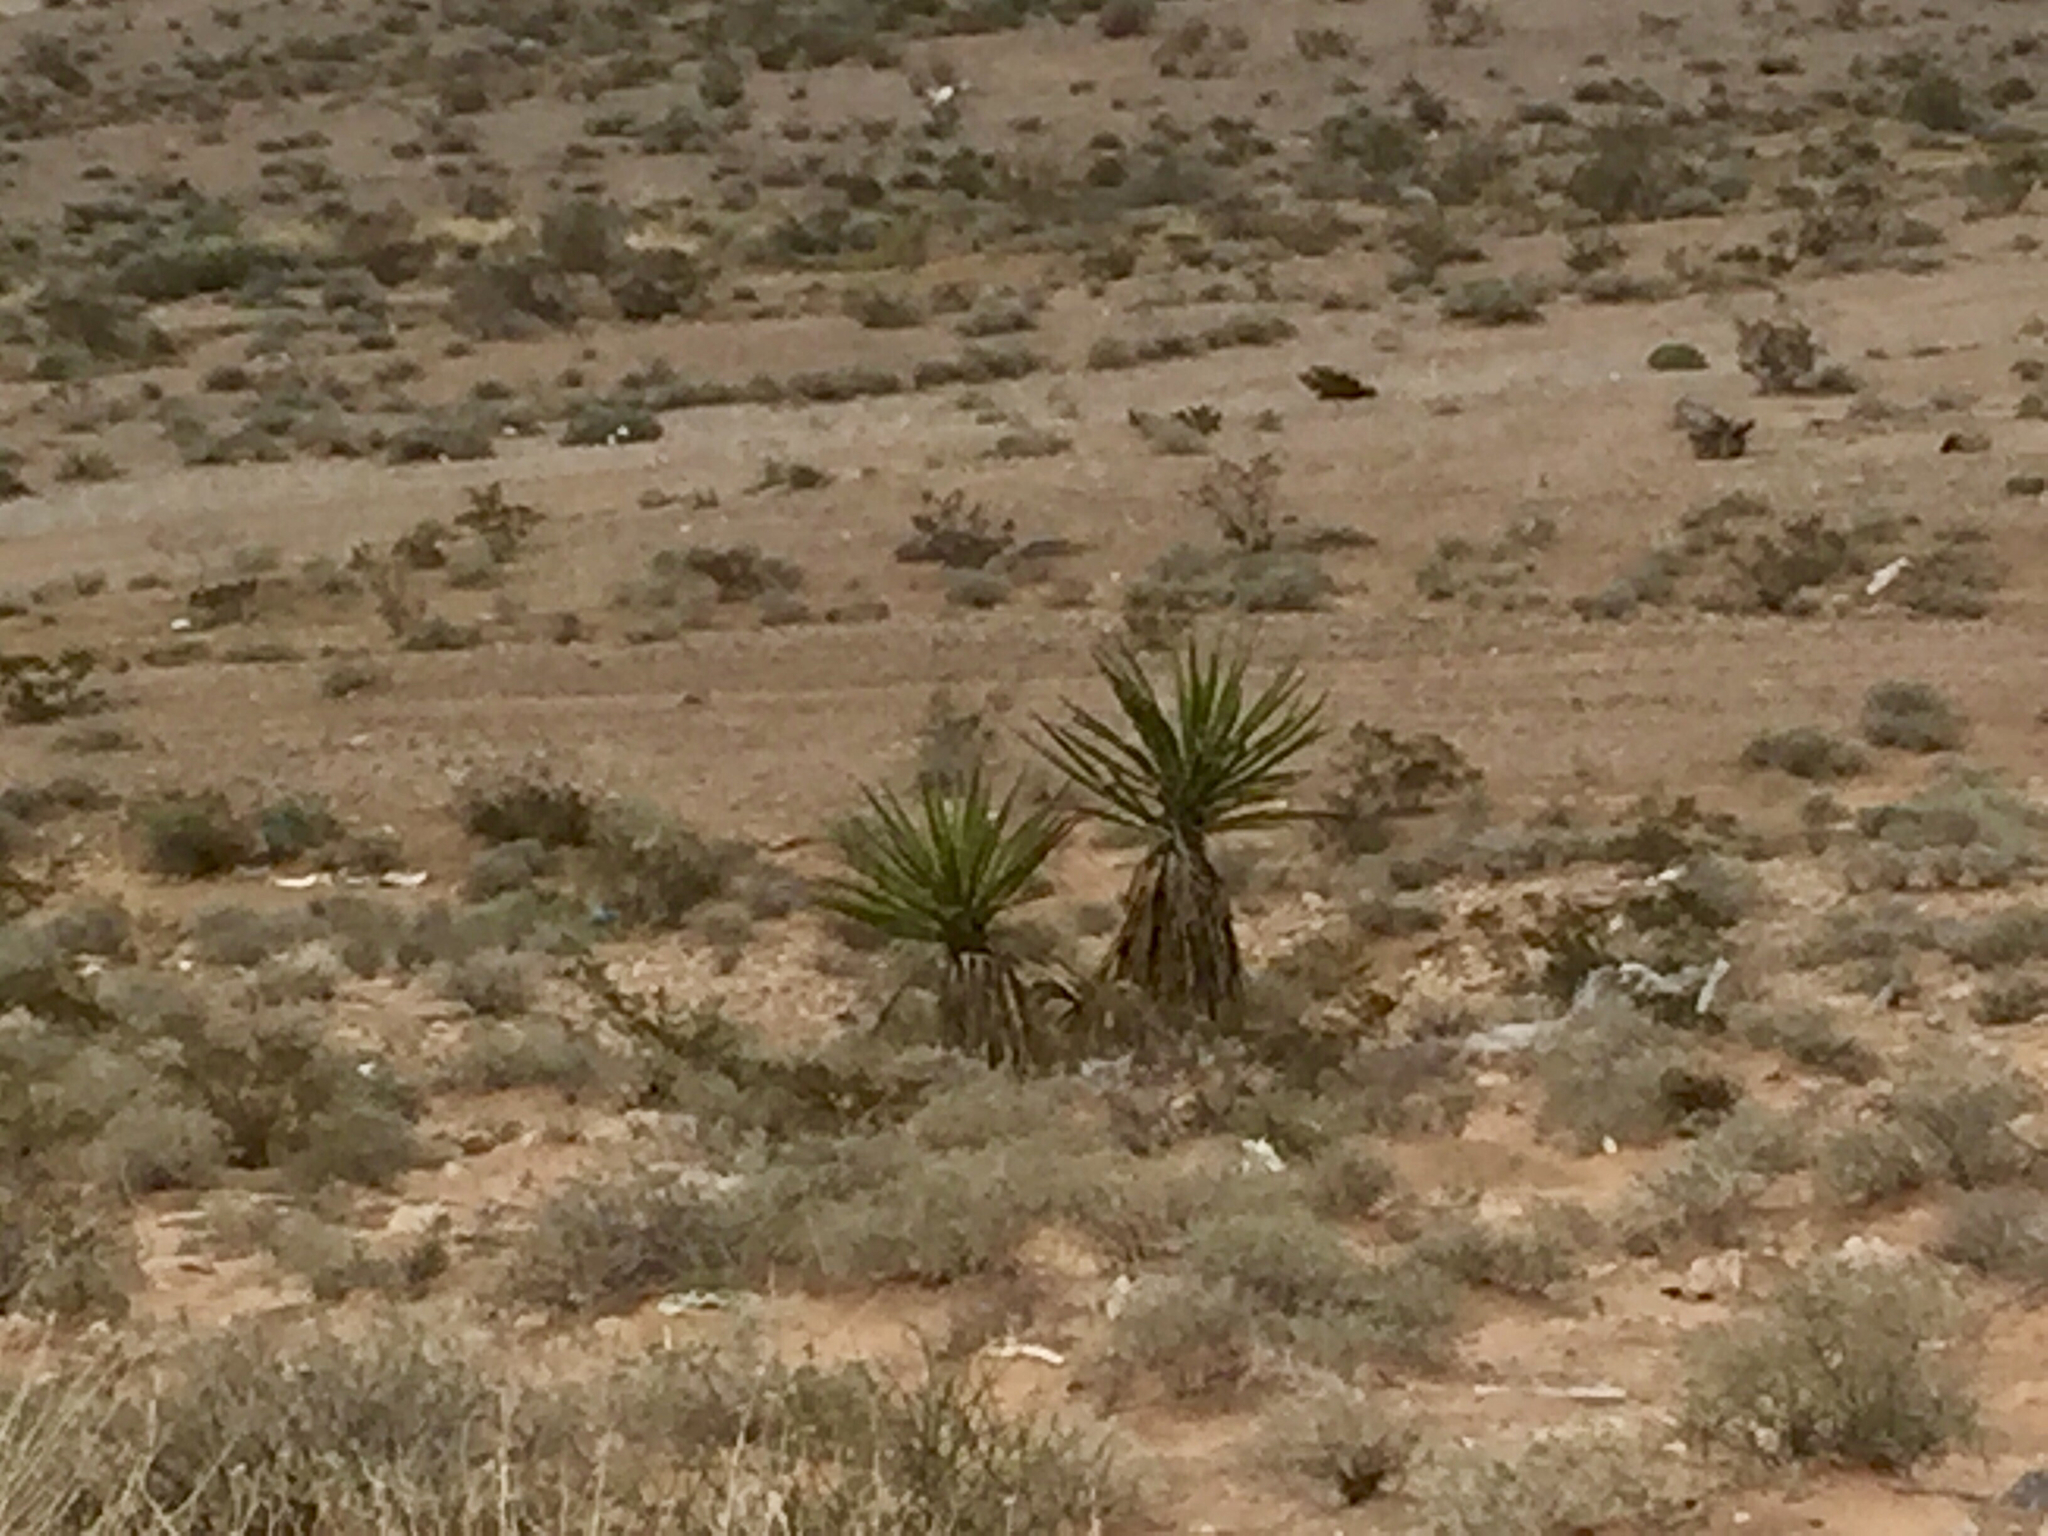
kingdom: Plantae
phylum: Tracheophyta
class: Liliopsida
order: Asparagales
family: Asparagaceae
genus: Yucca
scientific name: Yucca schidigera
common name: Mojave yucca
